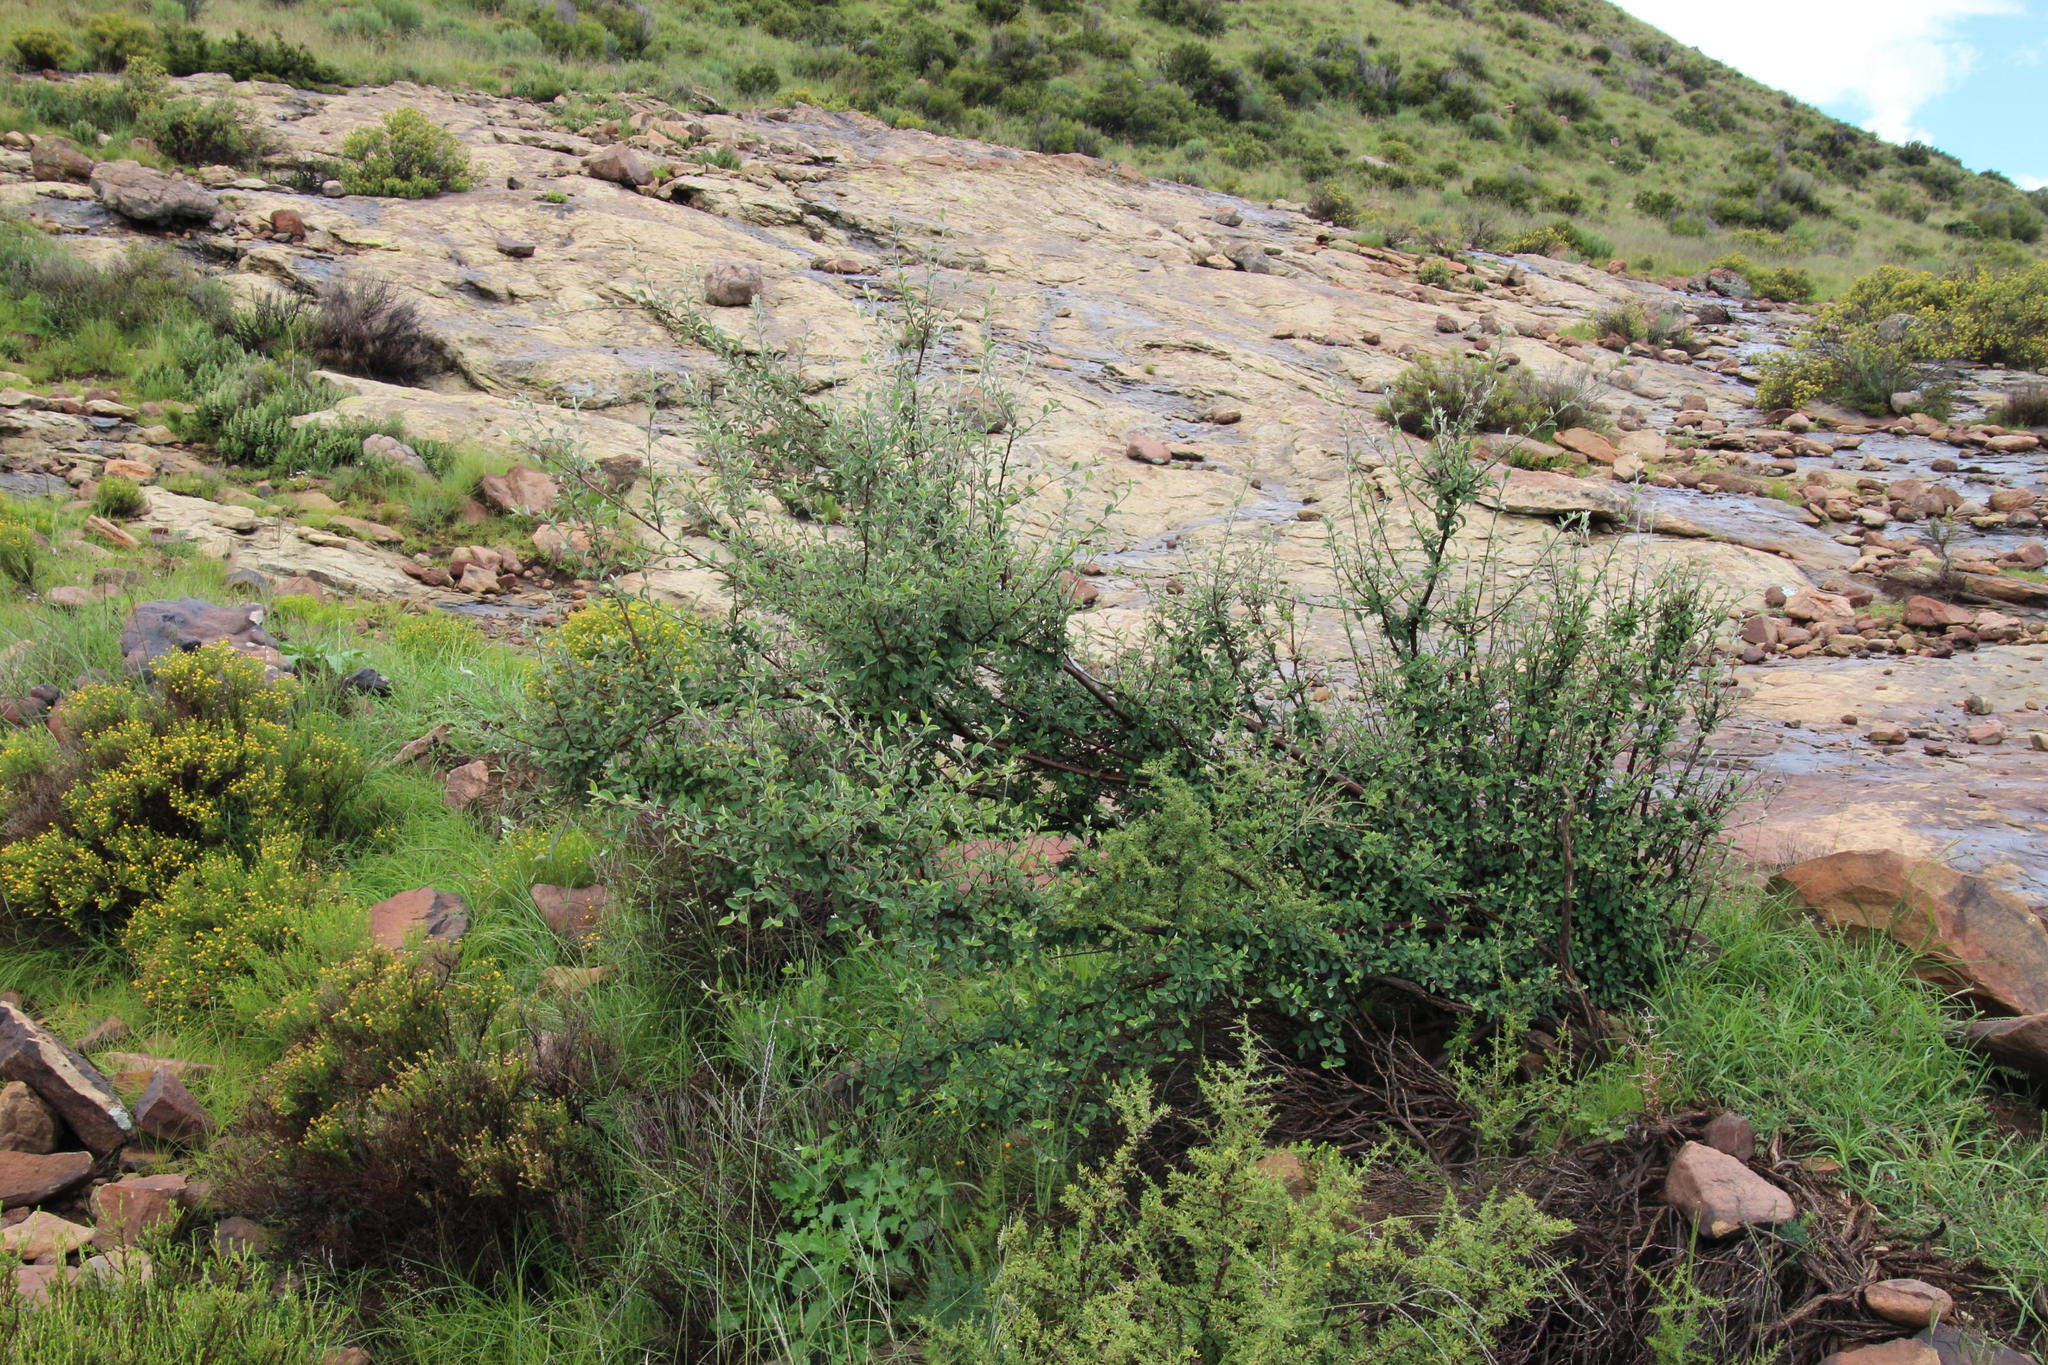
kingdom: Plantae
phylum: Tracheophyta
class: Magnoliopsida
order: Rosales
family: Rosaceae
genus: Cotoneaster
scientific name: Cotoneaster pannosus
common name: Silverleaf cotoneaster
